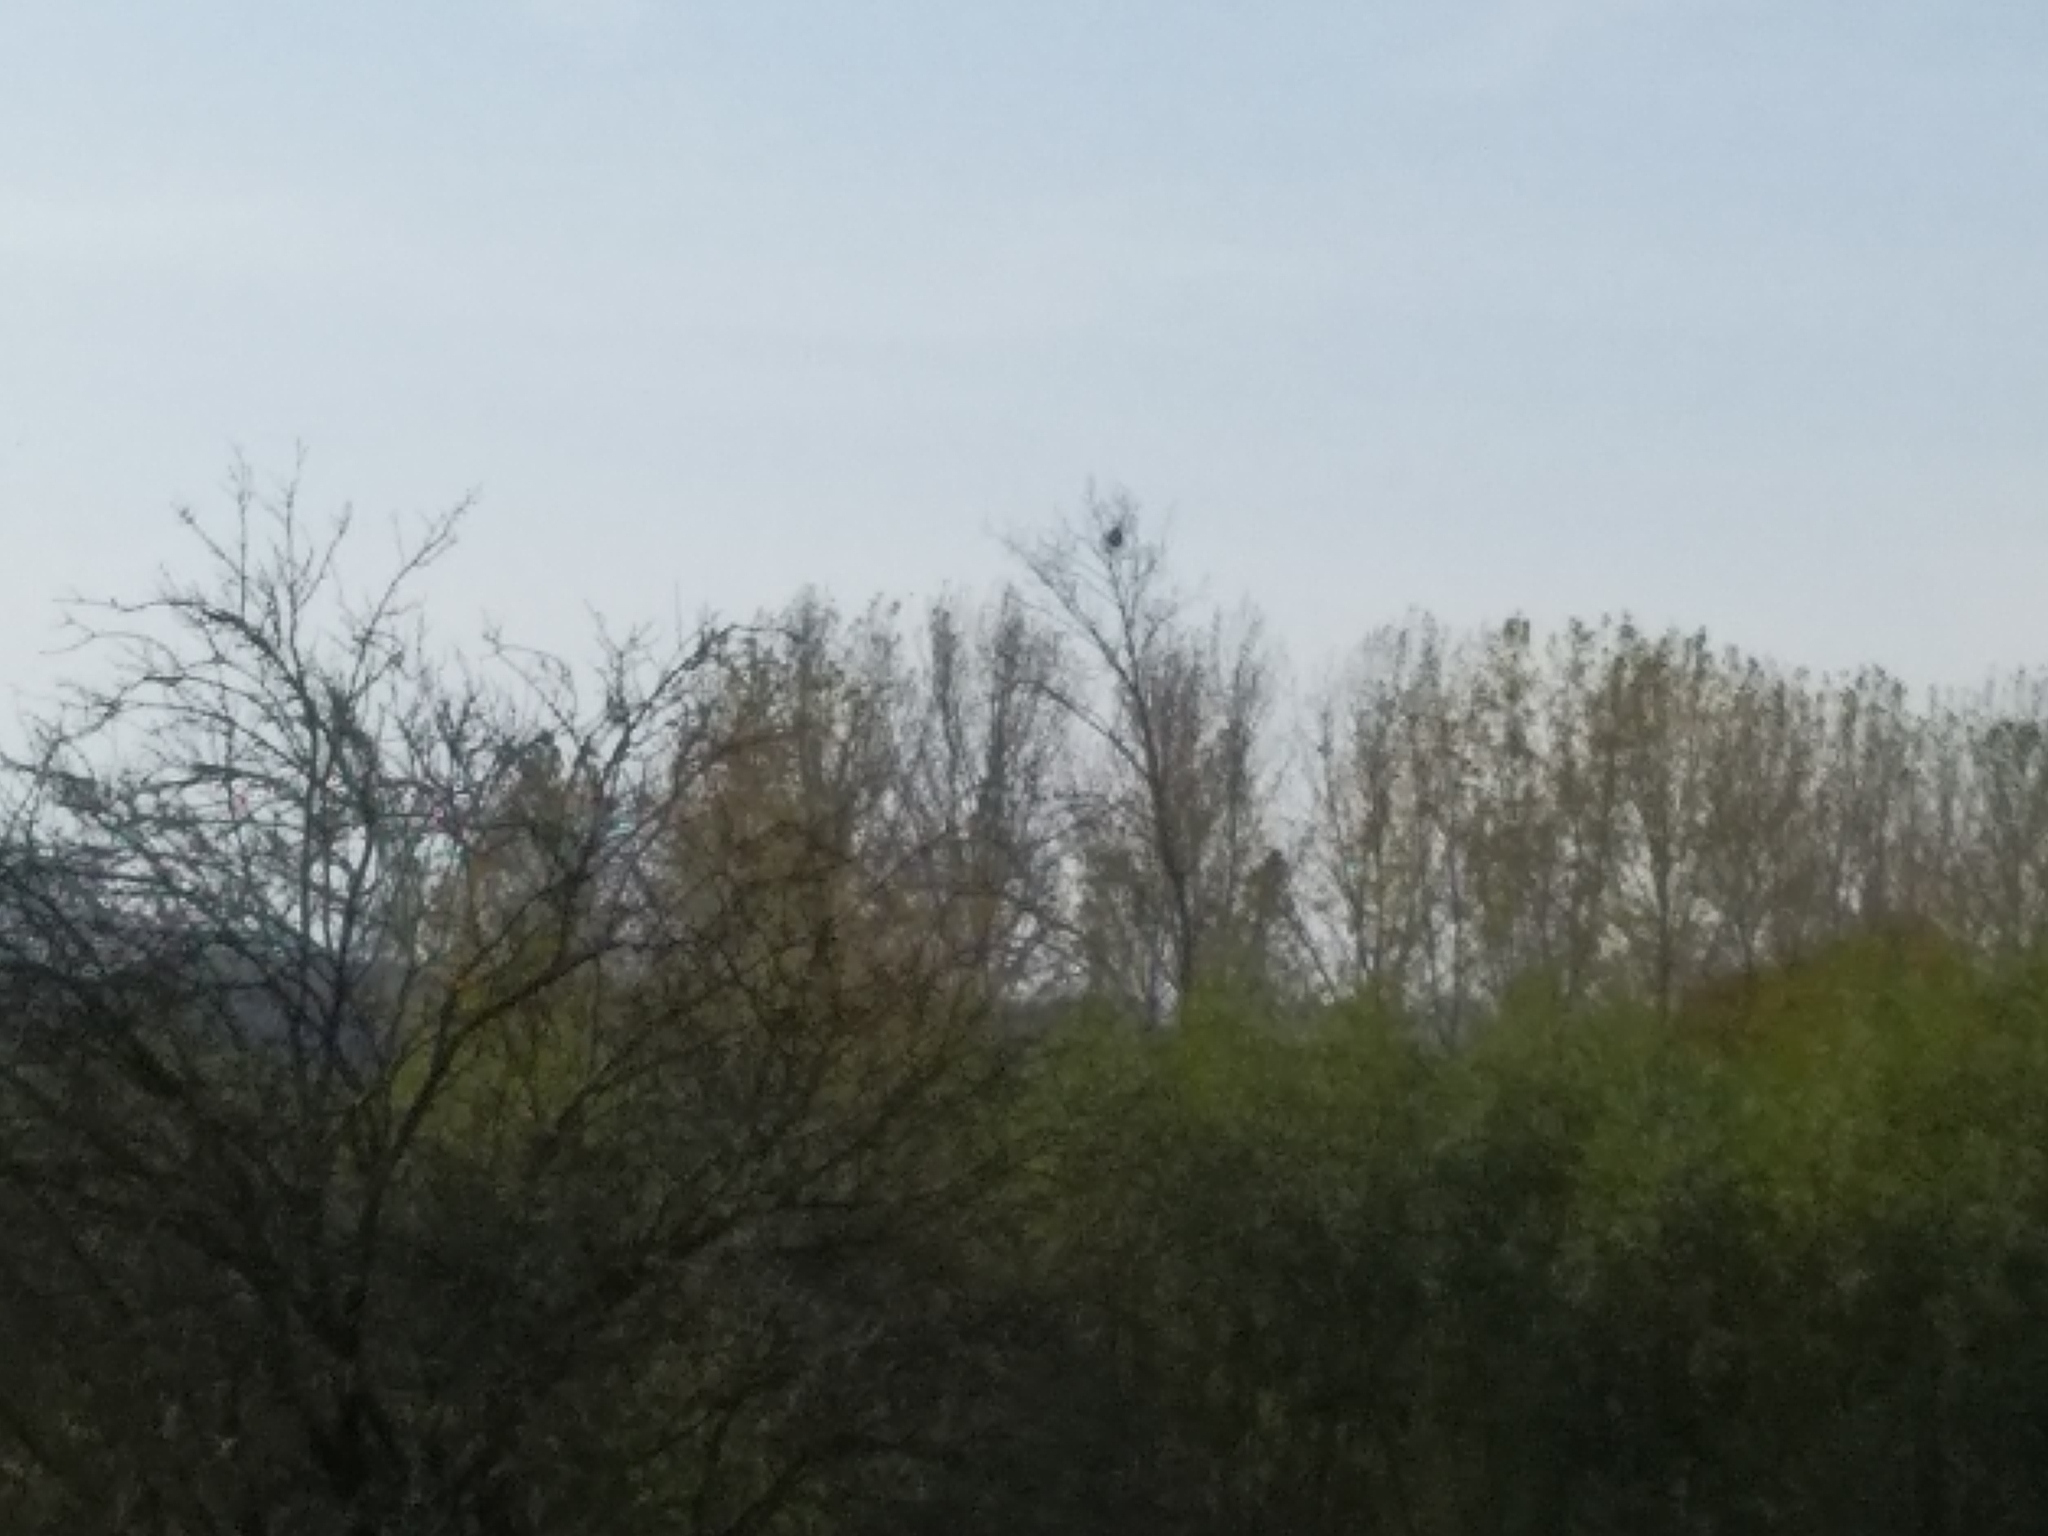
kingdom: Animalia
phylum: Arthropoda
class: Insecta
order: Hymenoptera
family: Vespidae
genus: Vespa
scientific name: Vespa velutina
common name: Asian hornet
